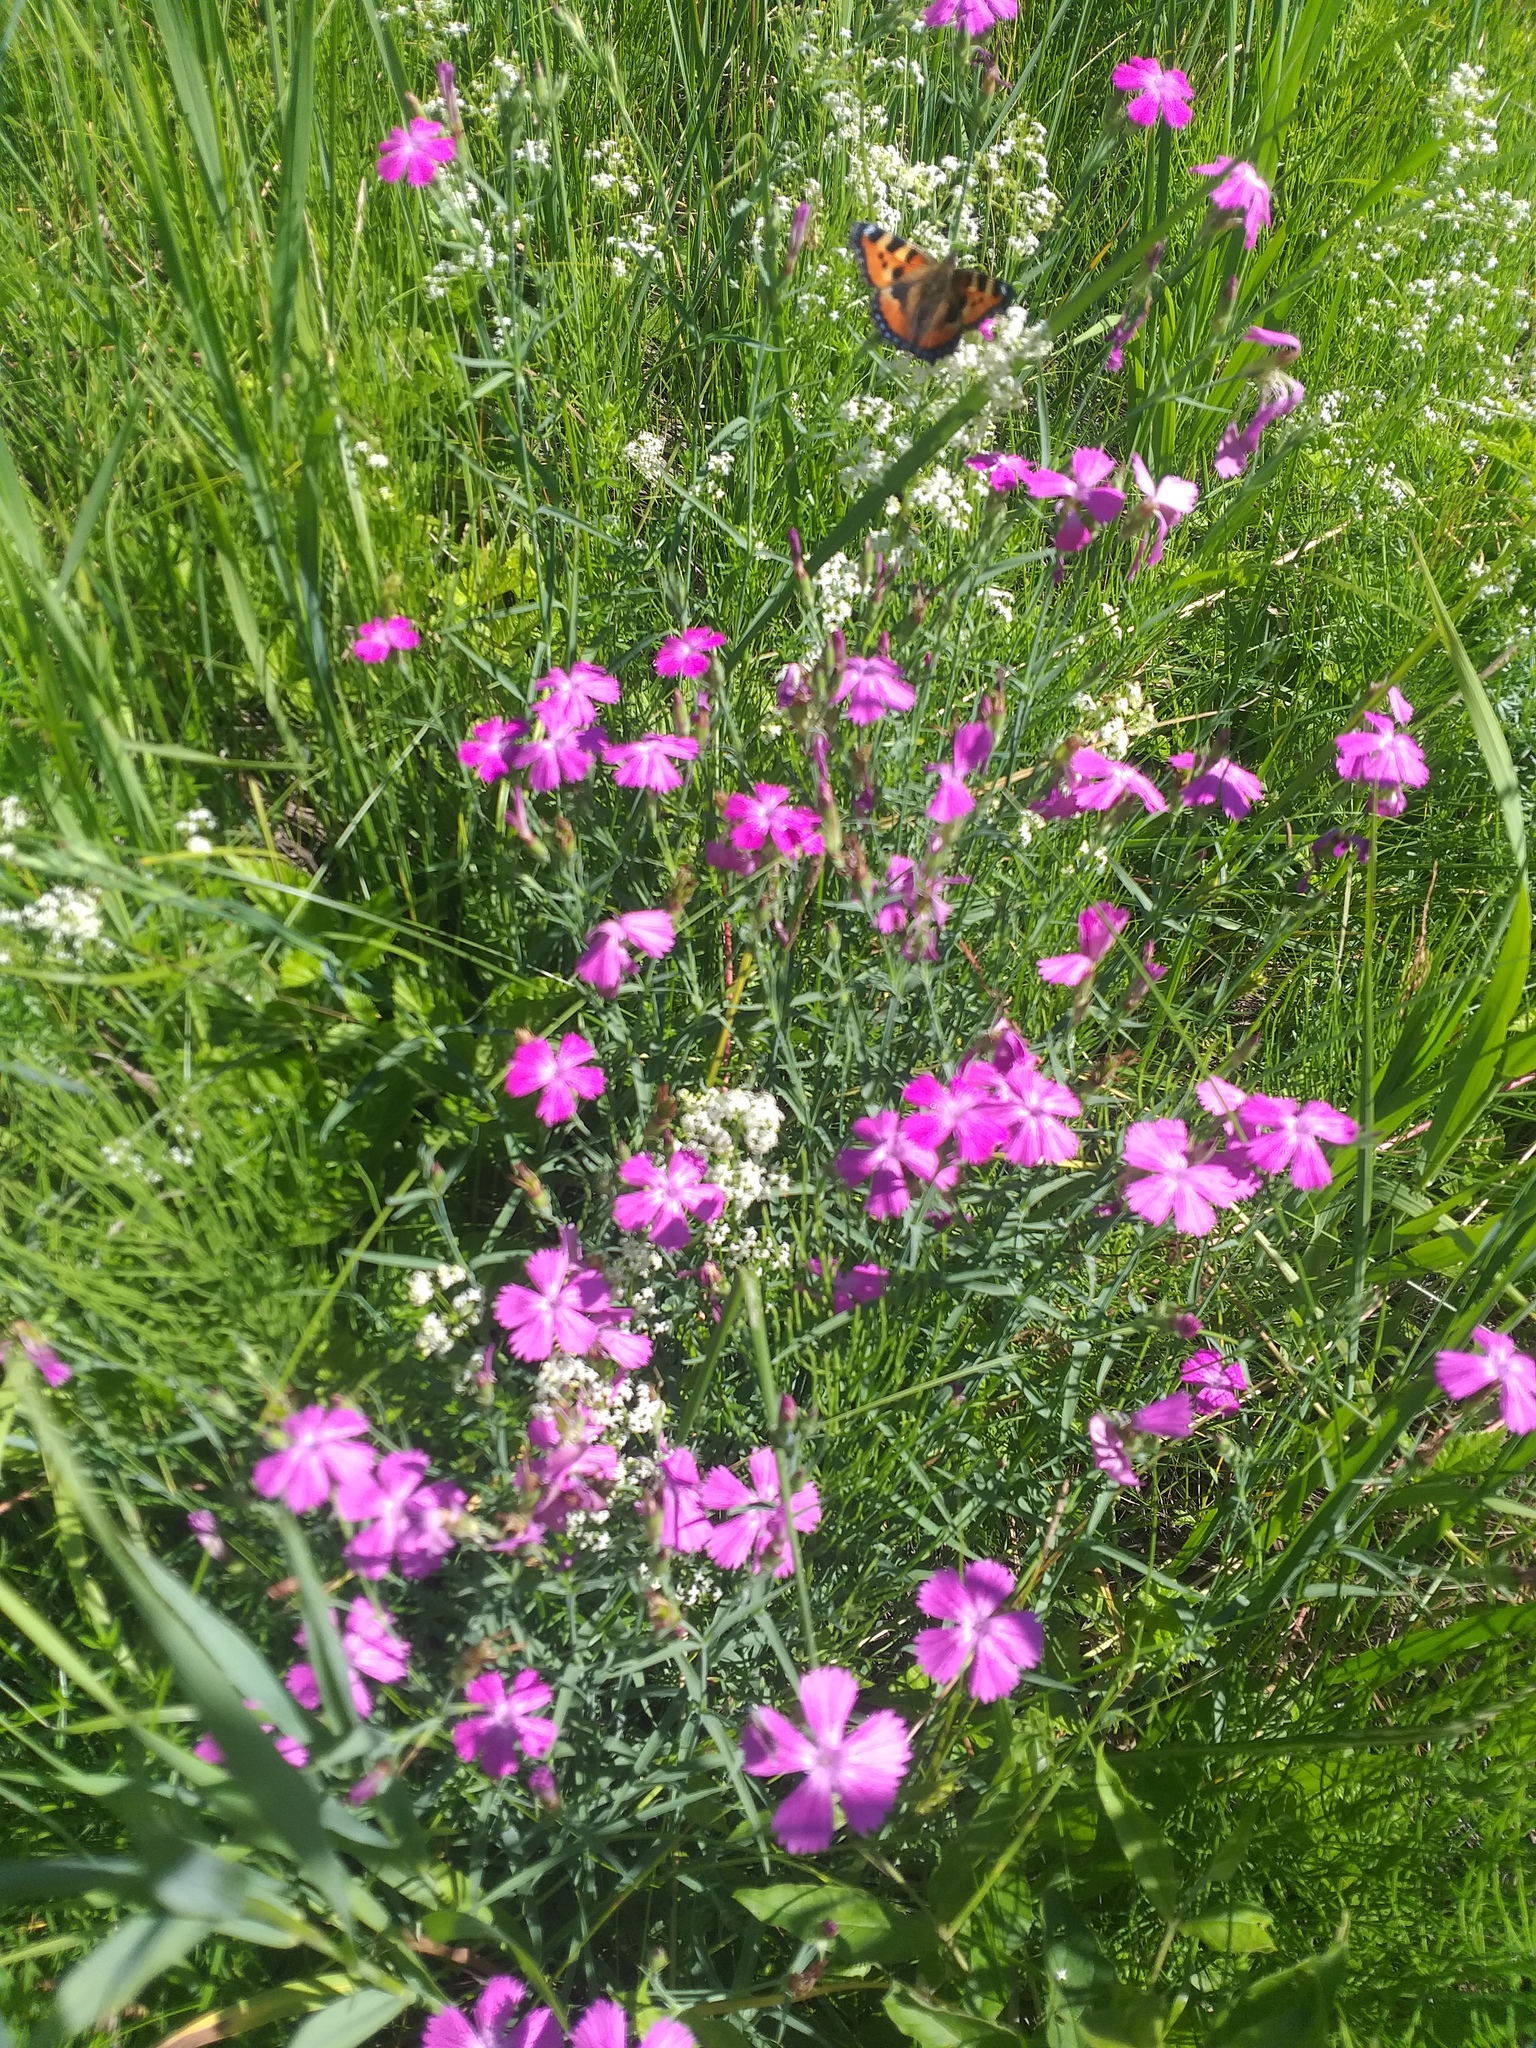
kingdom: Plantae
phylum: Tracheophyta
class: Magnoliopsida
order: Caryophyllales
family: Caryophyllaceae
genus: Dianthus
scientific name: Dianthus chinensis
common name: Rainbow pink
